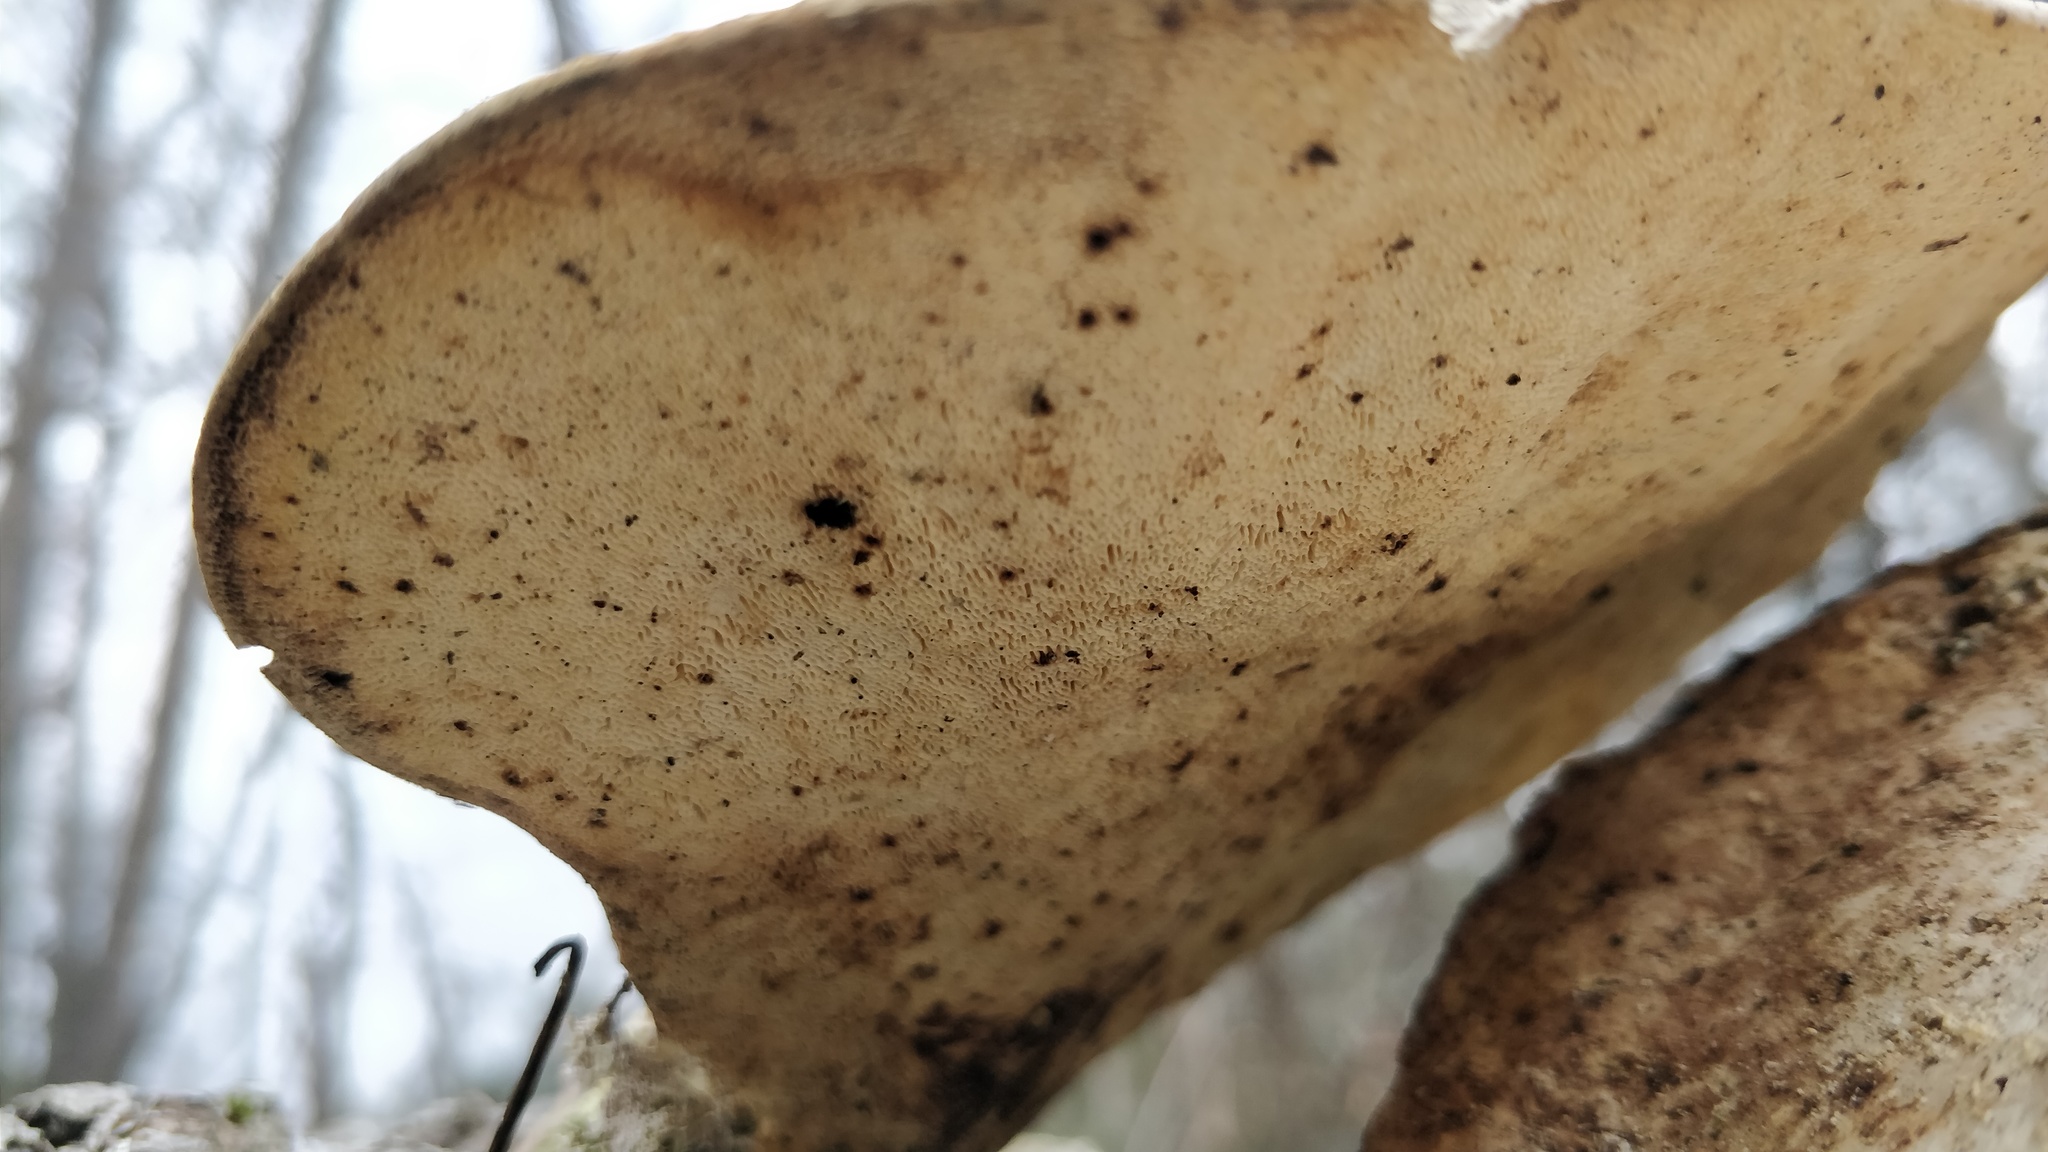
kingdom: Fungi
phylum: Basidiomycota
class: Agaricomycetes
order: Polyporales
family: Polyporaceae
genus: Trametes
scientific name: Trametes gibbosa
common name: Lumpy bracket
